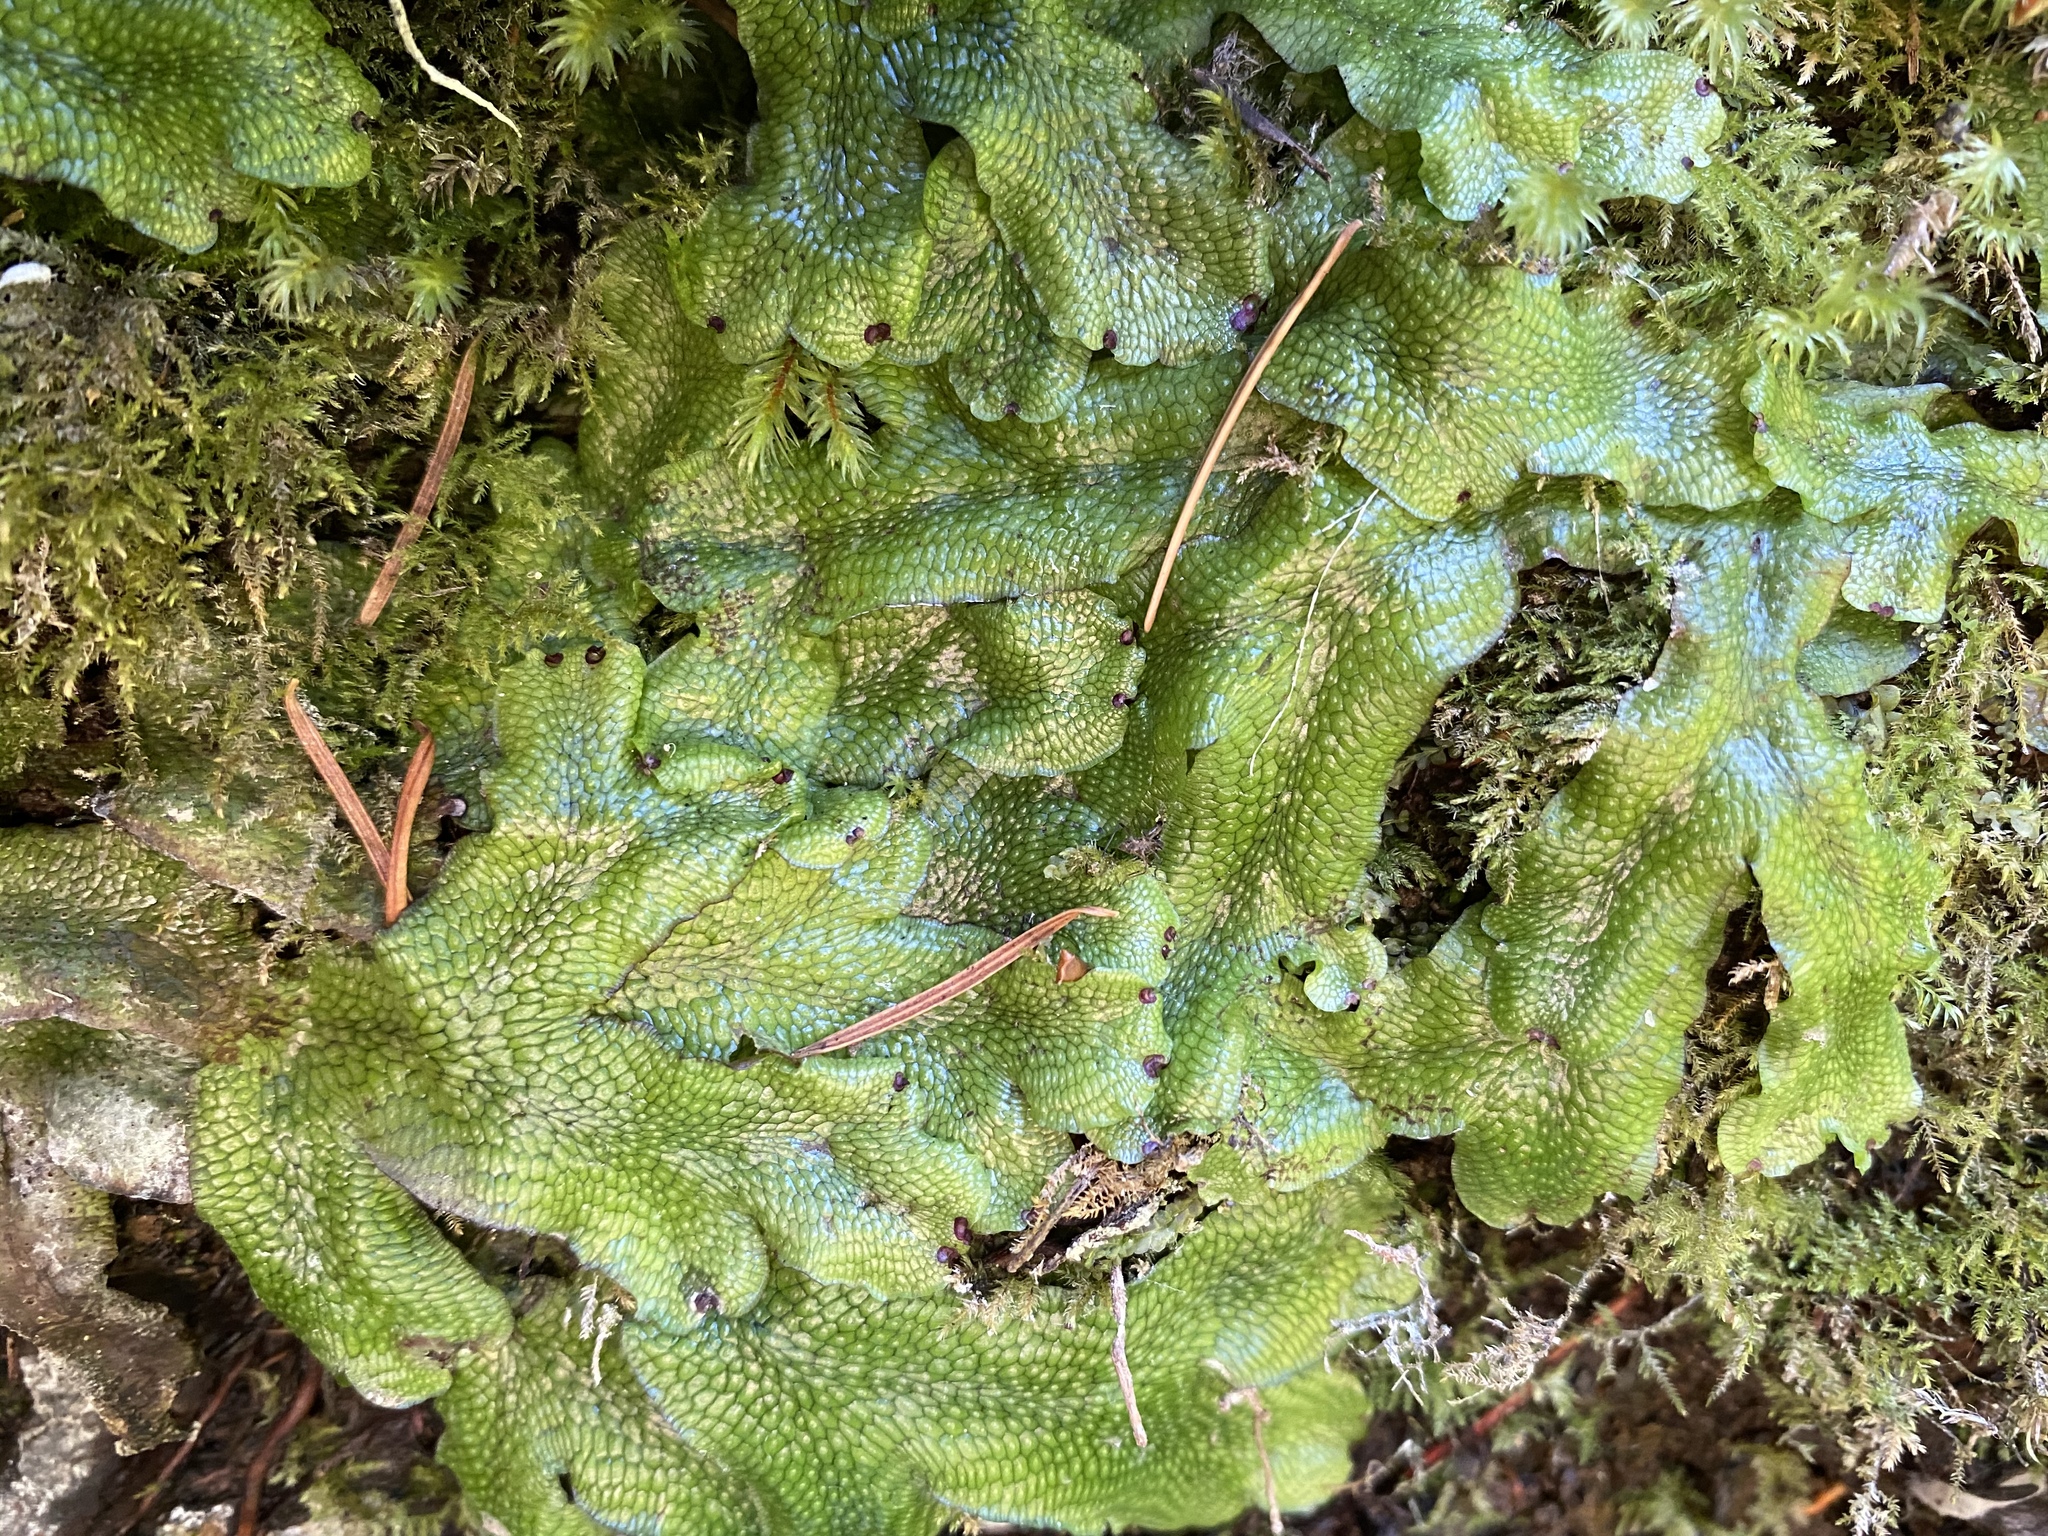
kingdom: Plantae
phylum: Marchantiophyta
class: Marchantiopsida
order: Marchantiales
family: Conocephalaceae
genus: Conocephalum
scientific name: Conocephalum salebrosum
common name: Cat-tongue liverwort
